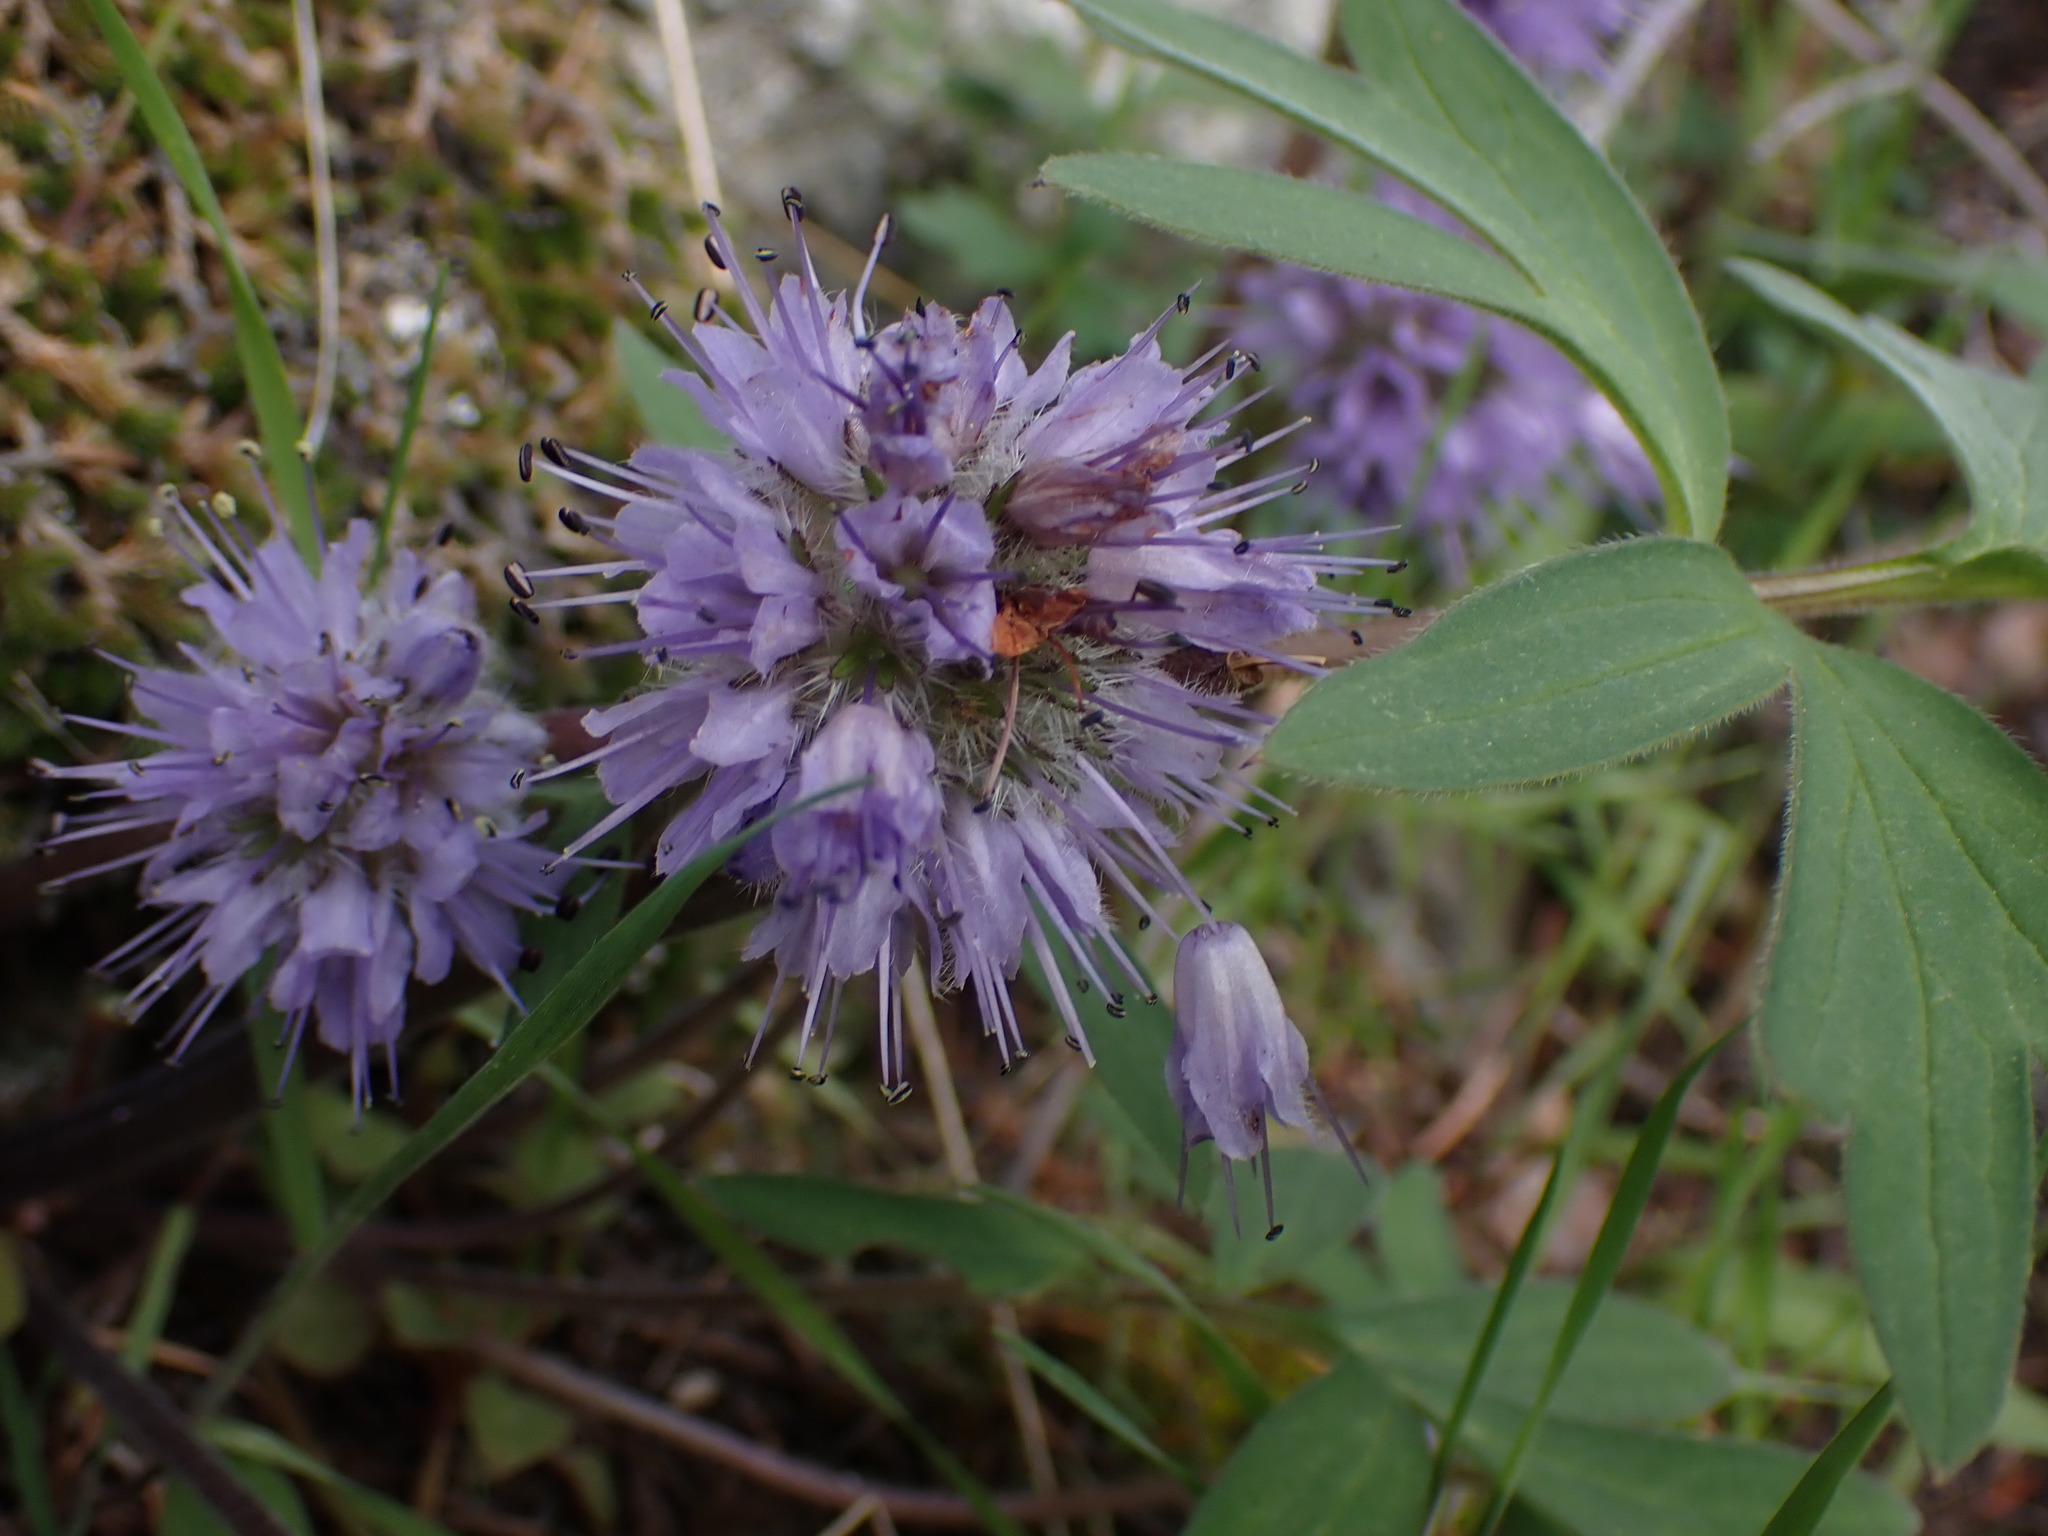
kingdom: Plantae
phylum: Tracheophyta
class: Magnoliopsida
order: Boraginales
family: Hydrophyllaceae
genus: Hydrophyllum
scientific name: Hydrophyllum capitatum
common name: Woollen-breeches
